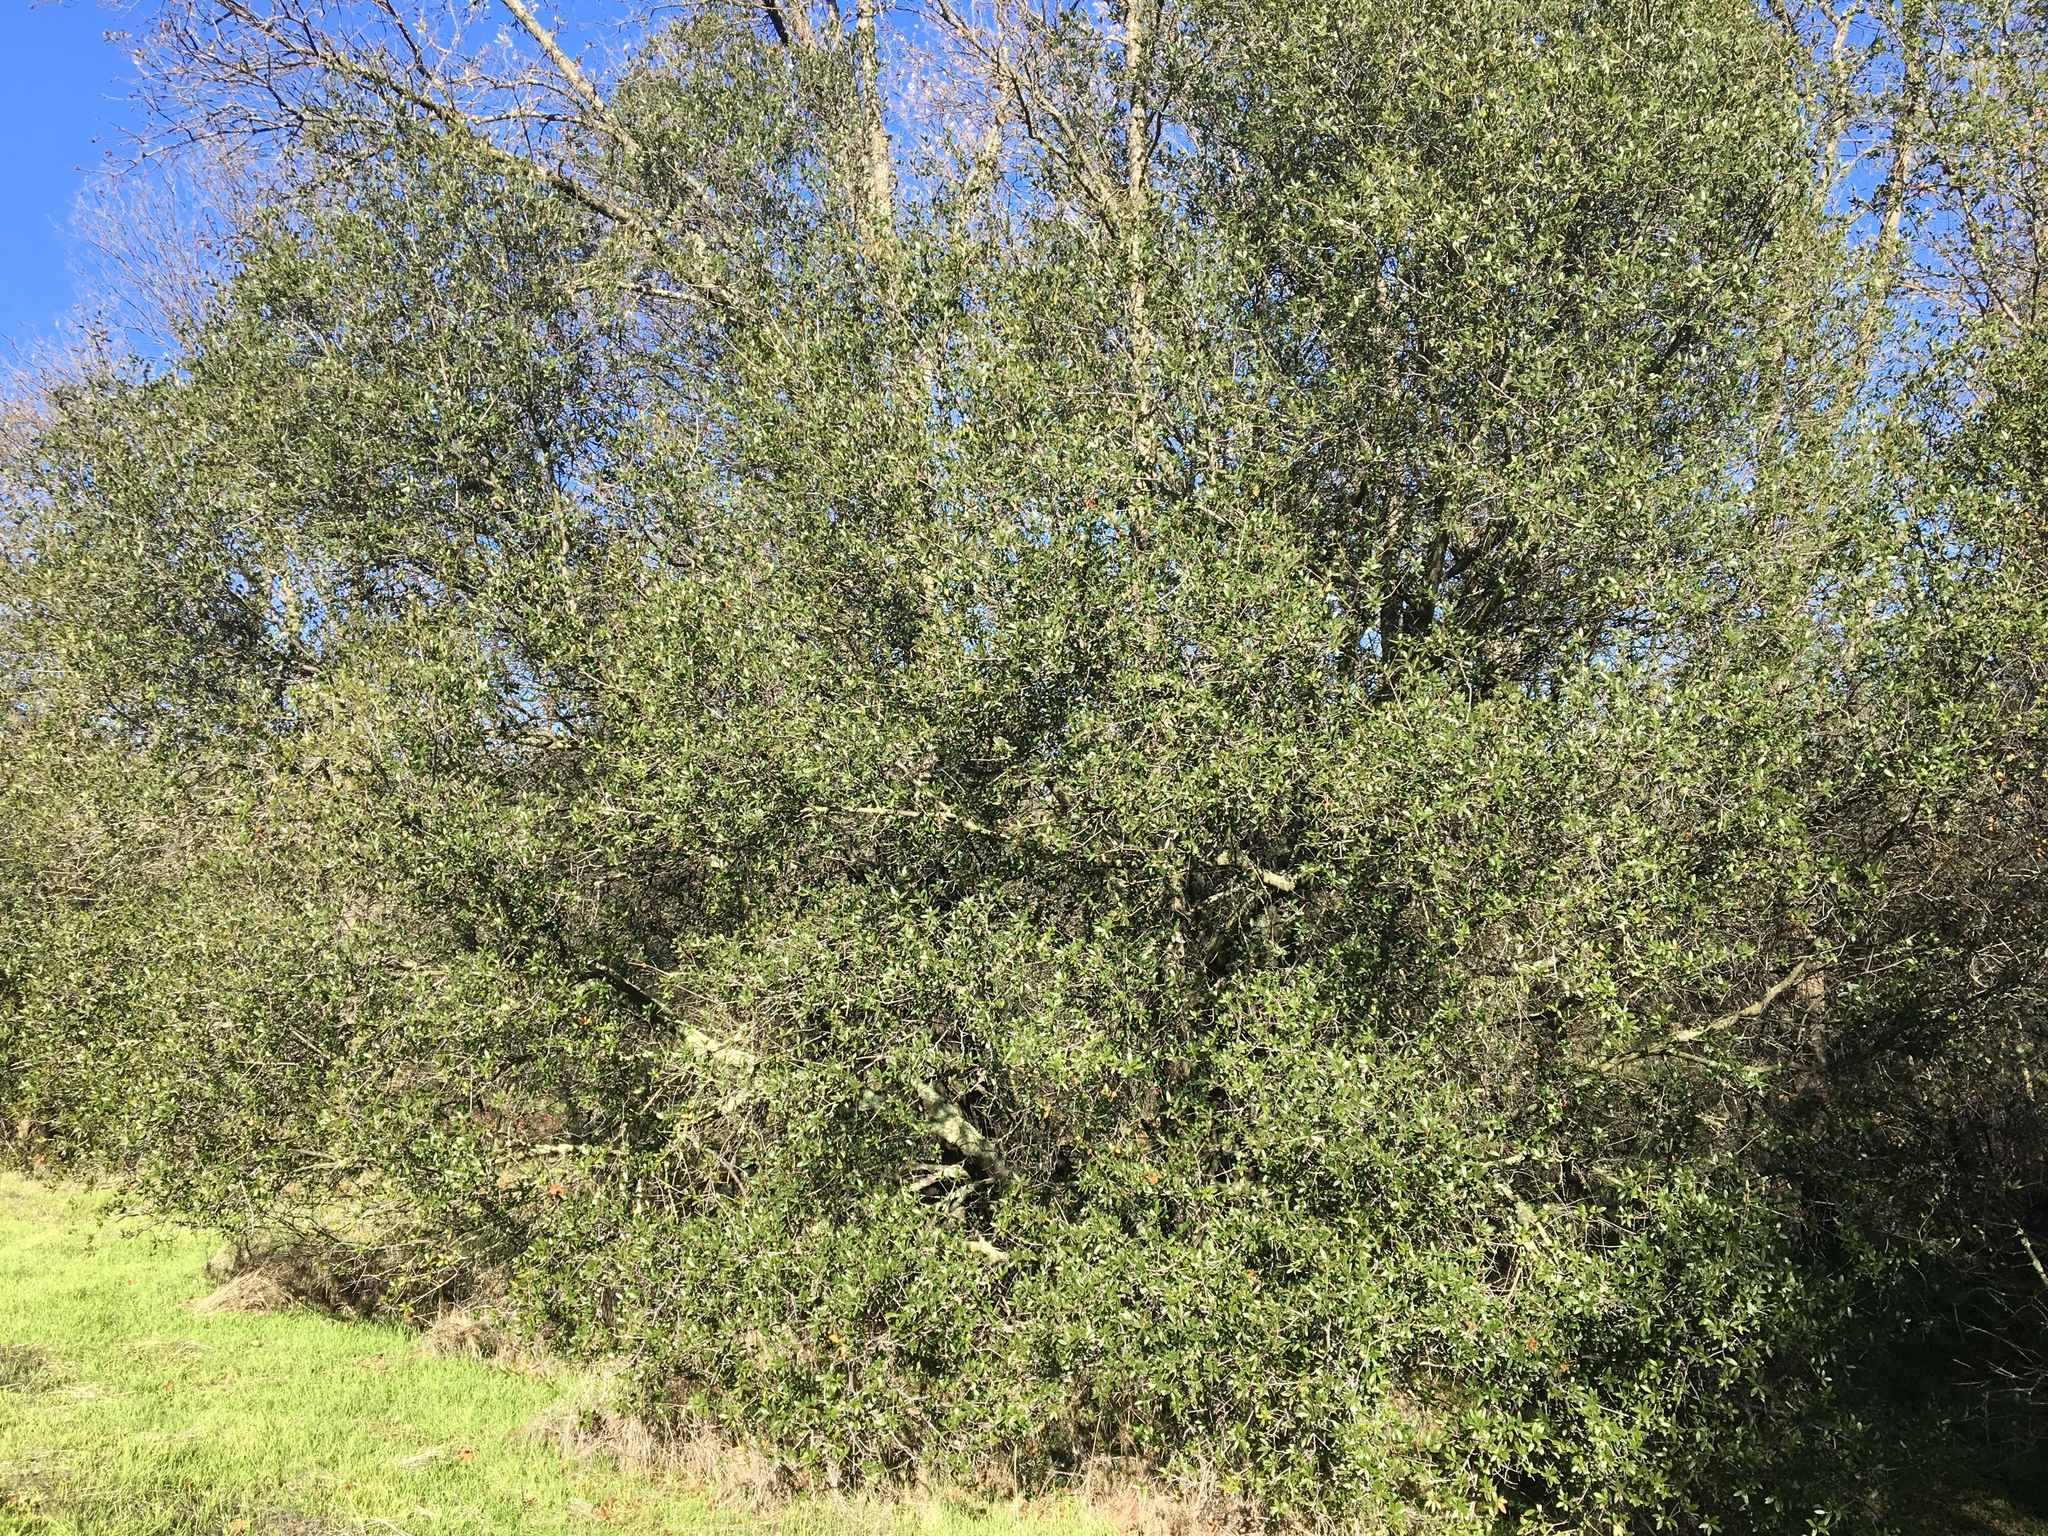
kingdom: Plantae
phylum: Tracheophyta
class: Magnoliopsida
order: Fagales
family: Fagaceae
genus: Quercus
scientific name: Quercus wislizeni
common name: Interior live oak
